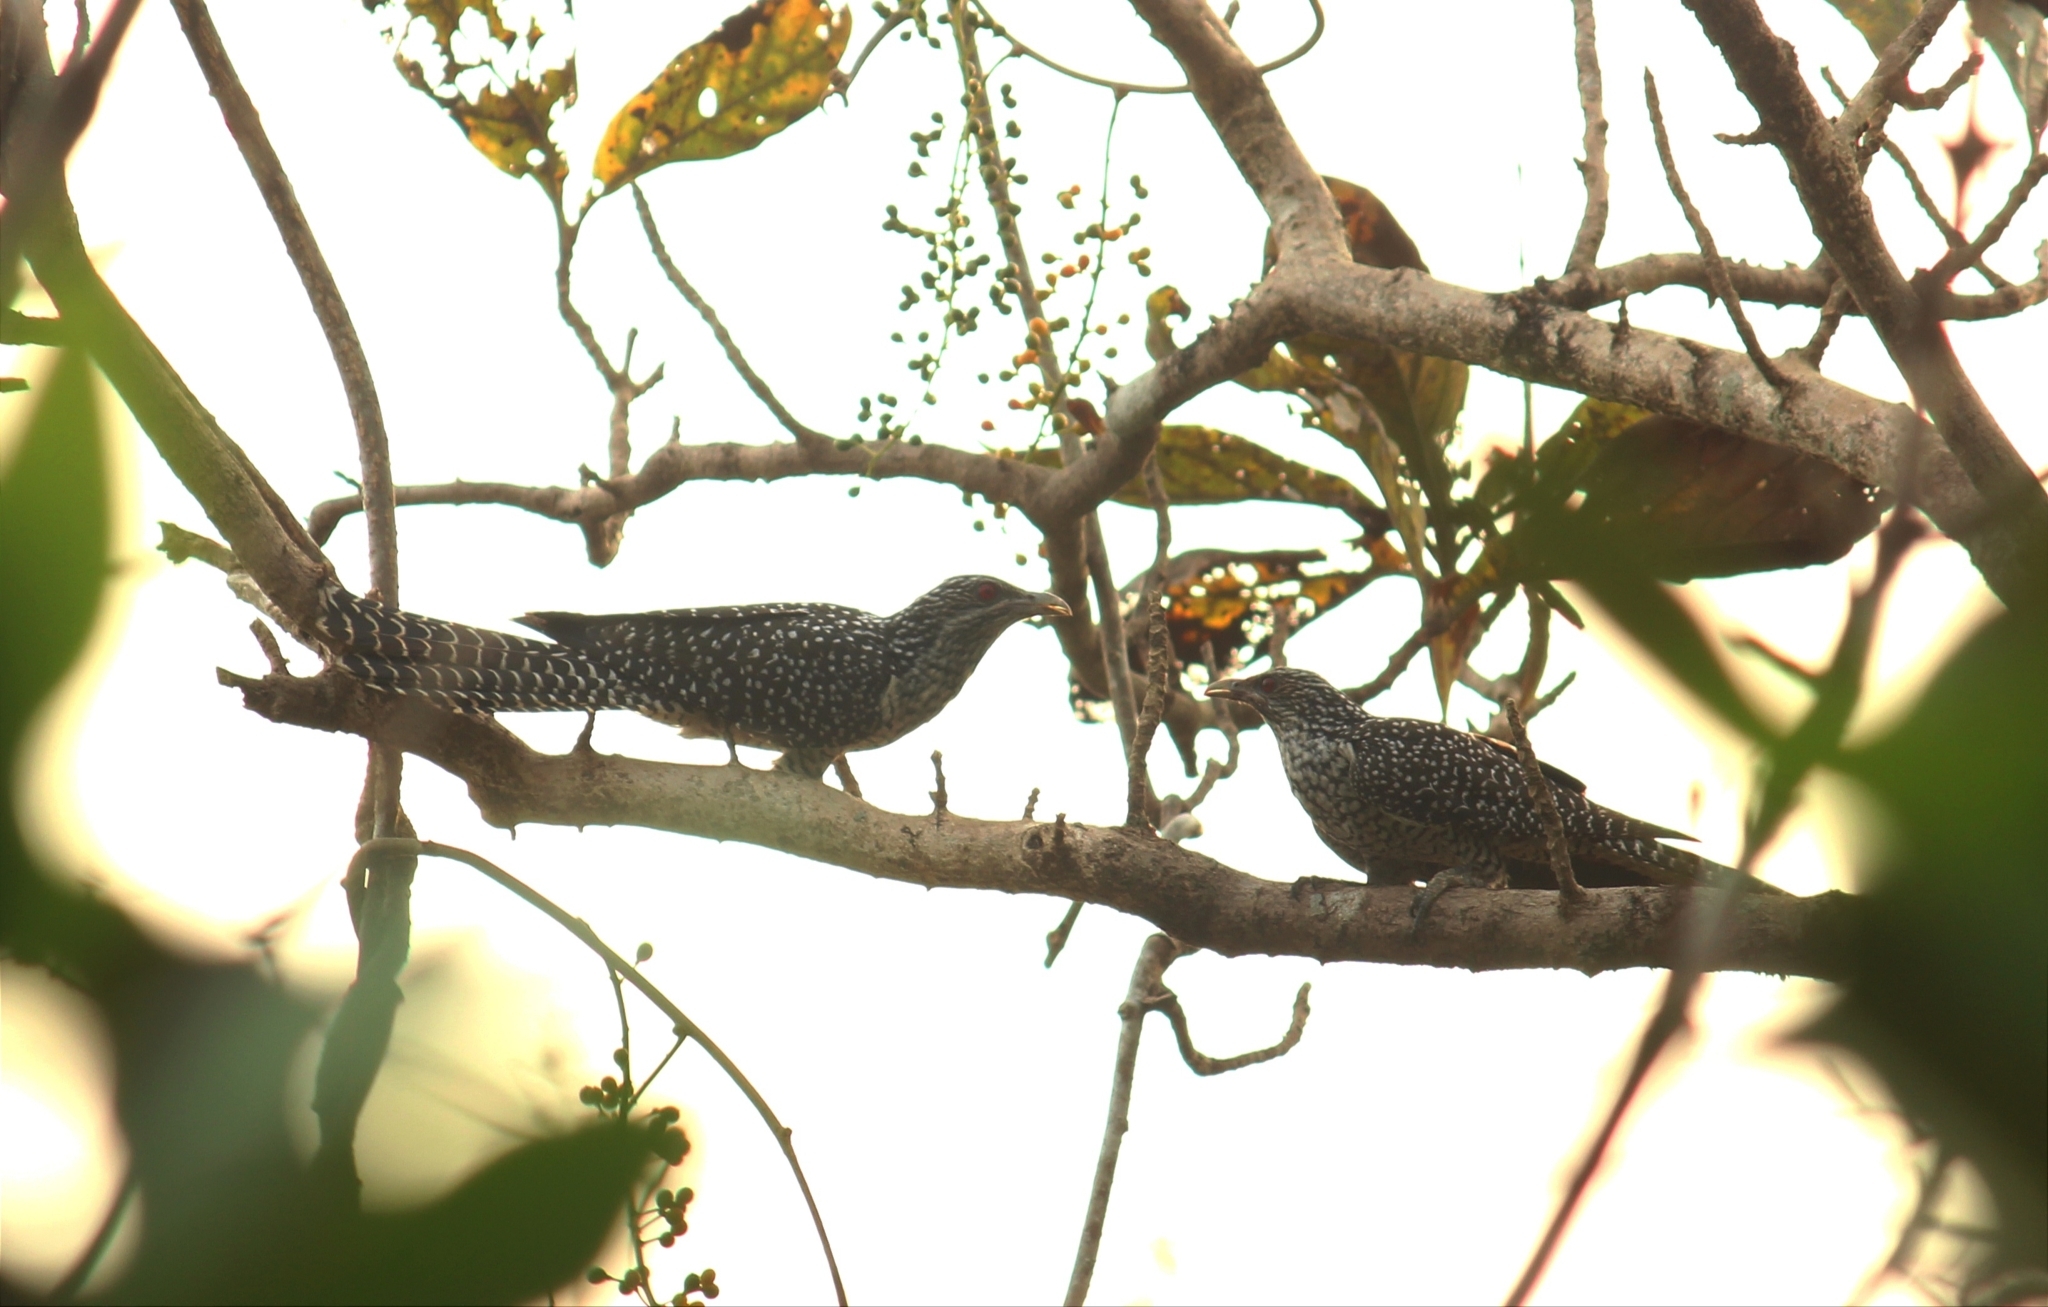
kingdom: Animalia
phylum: Chordata
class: Aves
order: Cuculiformes
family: Cuculidae
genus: Eudynamys
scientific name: Eudynamys scolopaceus
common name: Asian koel
